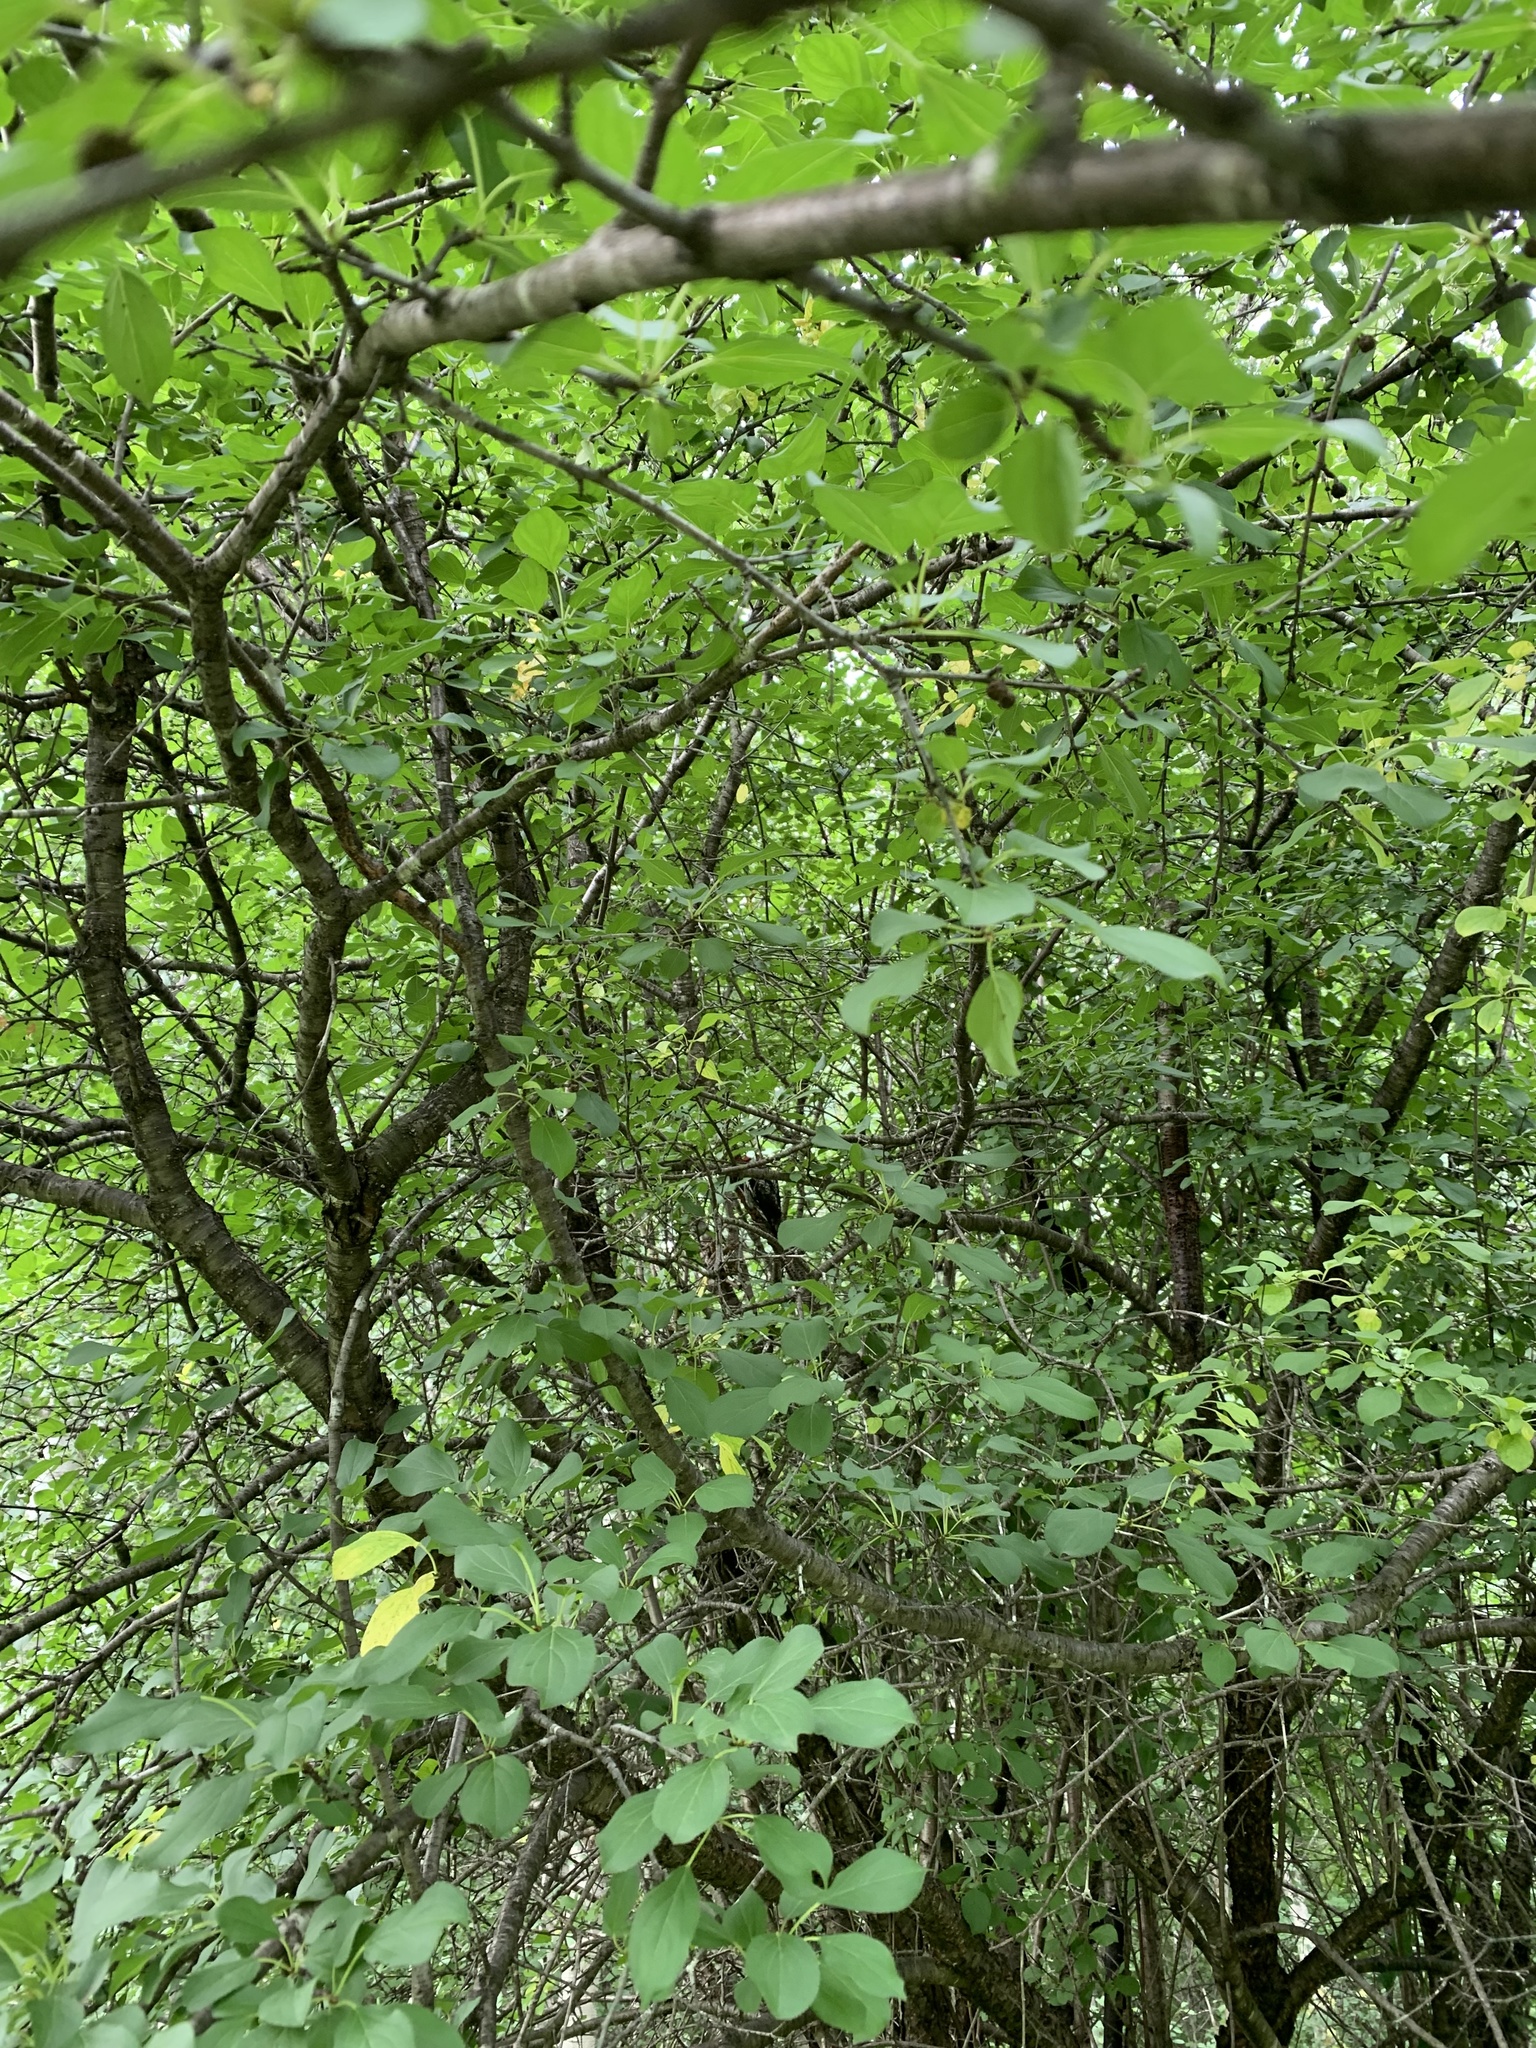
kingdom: Animalia
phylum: Chordata
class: Aves
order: Piciformes
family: Picidae
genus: Sphyrapicus
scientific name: Sphyrapicus varius
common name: Yellow-bellied sapsucker
